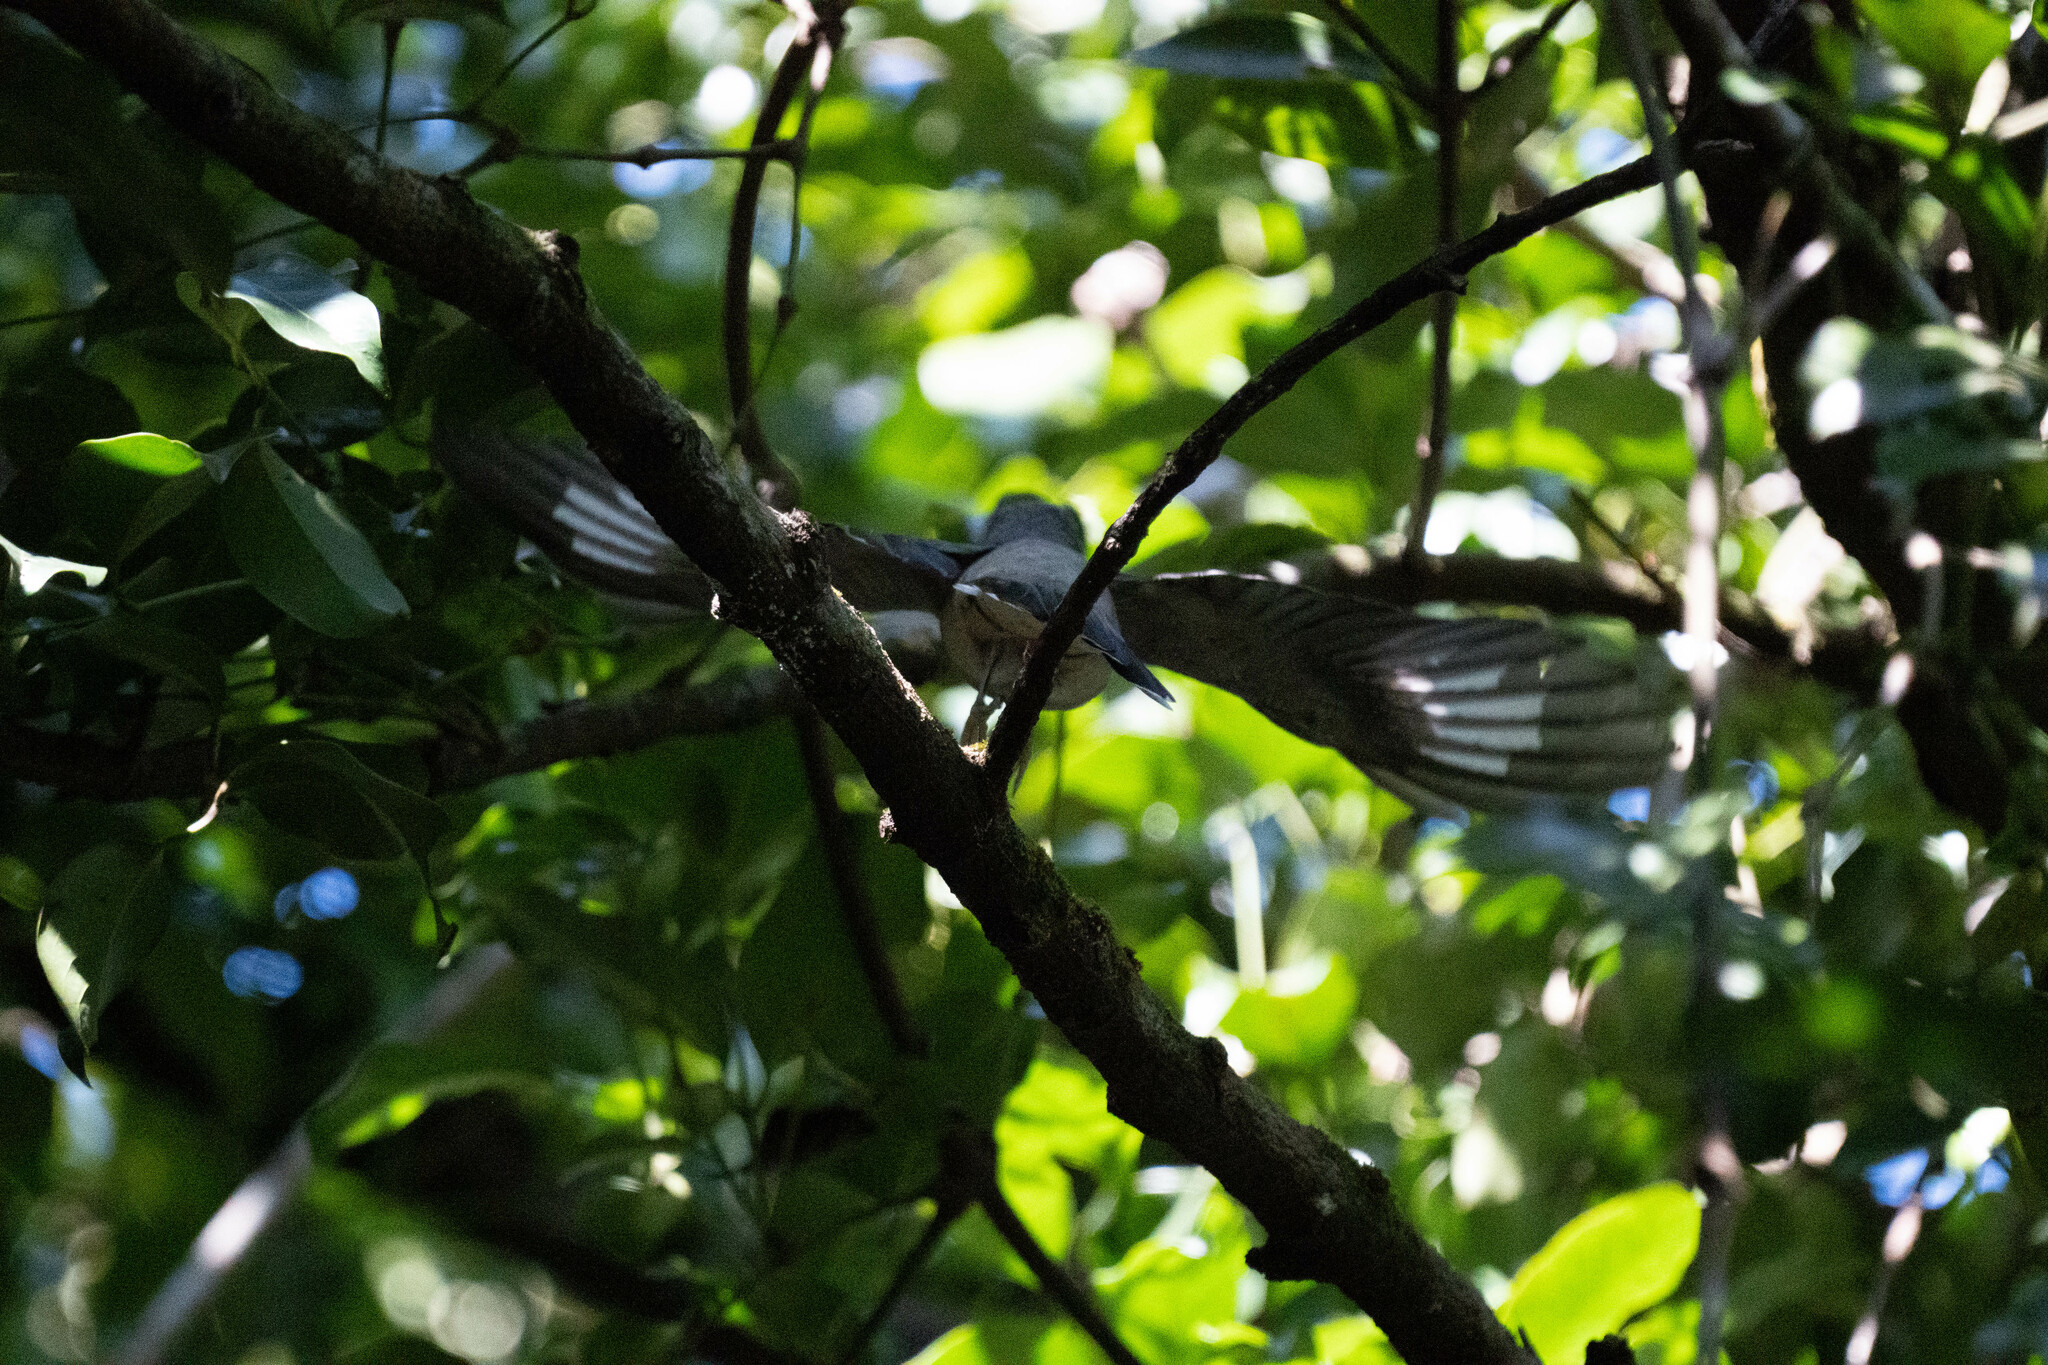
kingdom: Animalia
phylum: Chordata
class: Aves
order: Passeriformes
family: Campephagidae
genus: Coracina
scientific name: Coracina melaschistos
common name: Black-winged cuckooshrike
